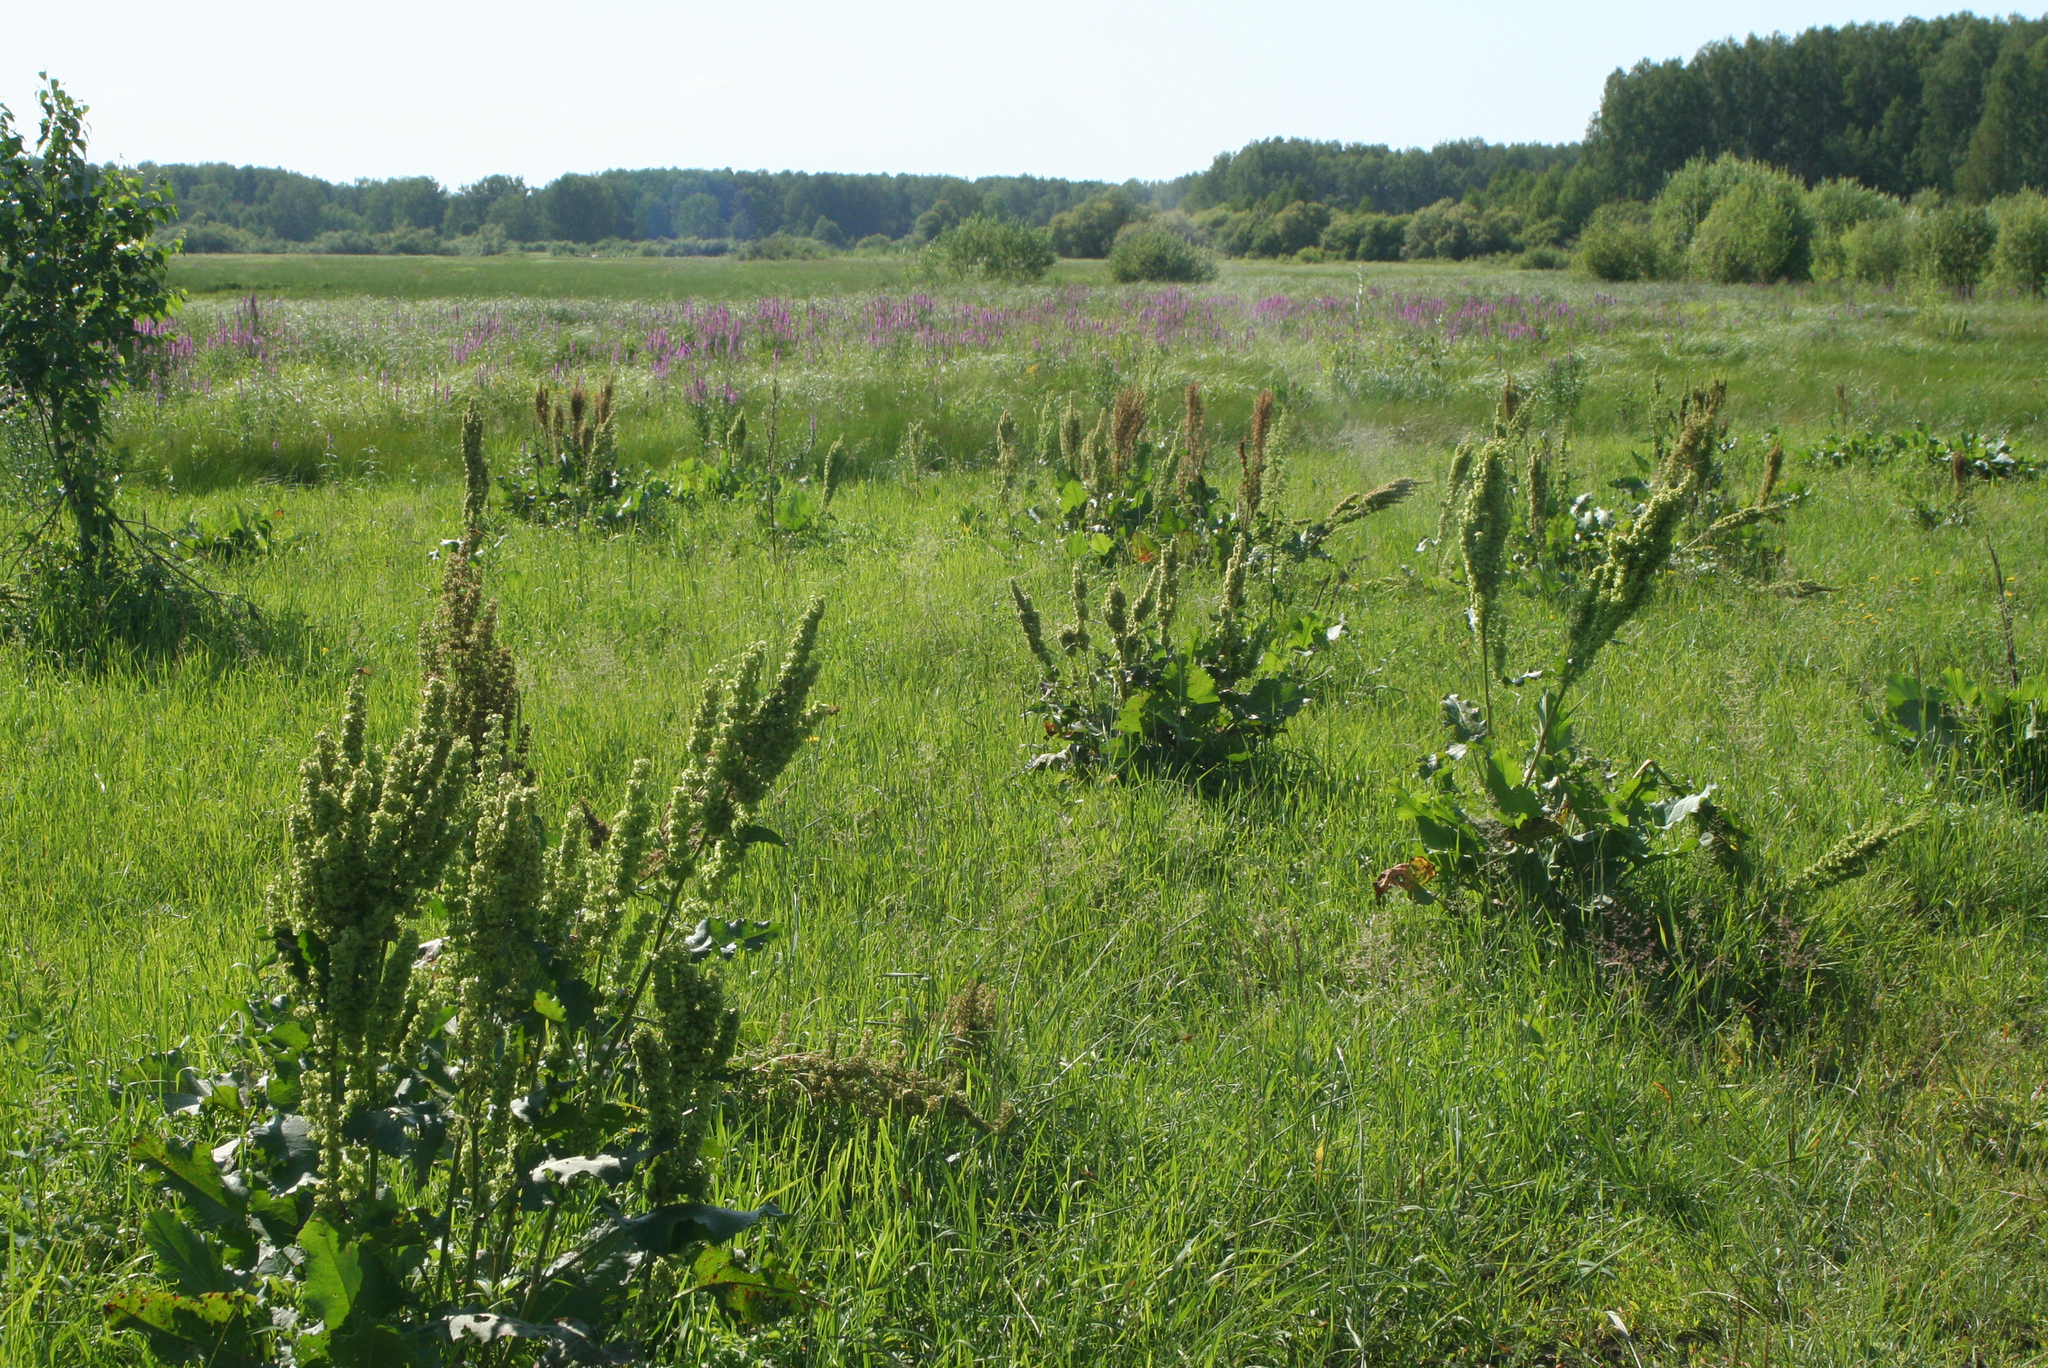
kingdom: Plantae
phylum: Tracheophyta
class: Magnoliopsida
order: Caryophyllales
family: Polygonaceae
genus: Rumex
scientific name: Rumex confertus
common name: Russian dock
